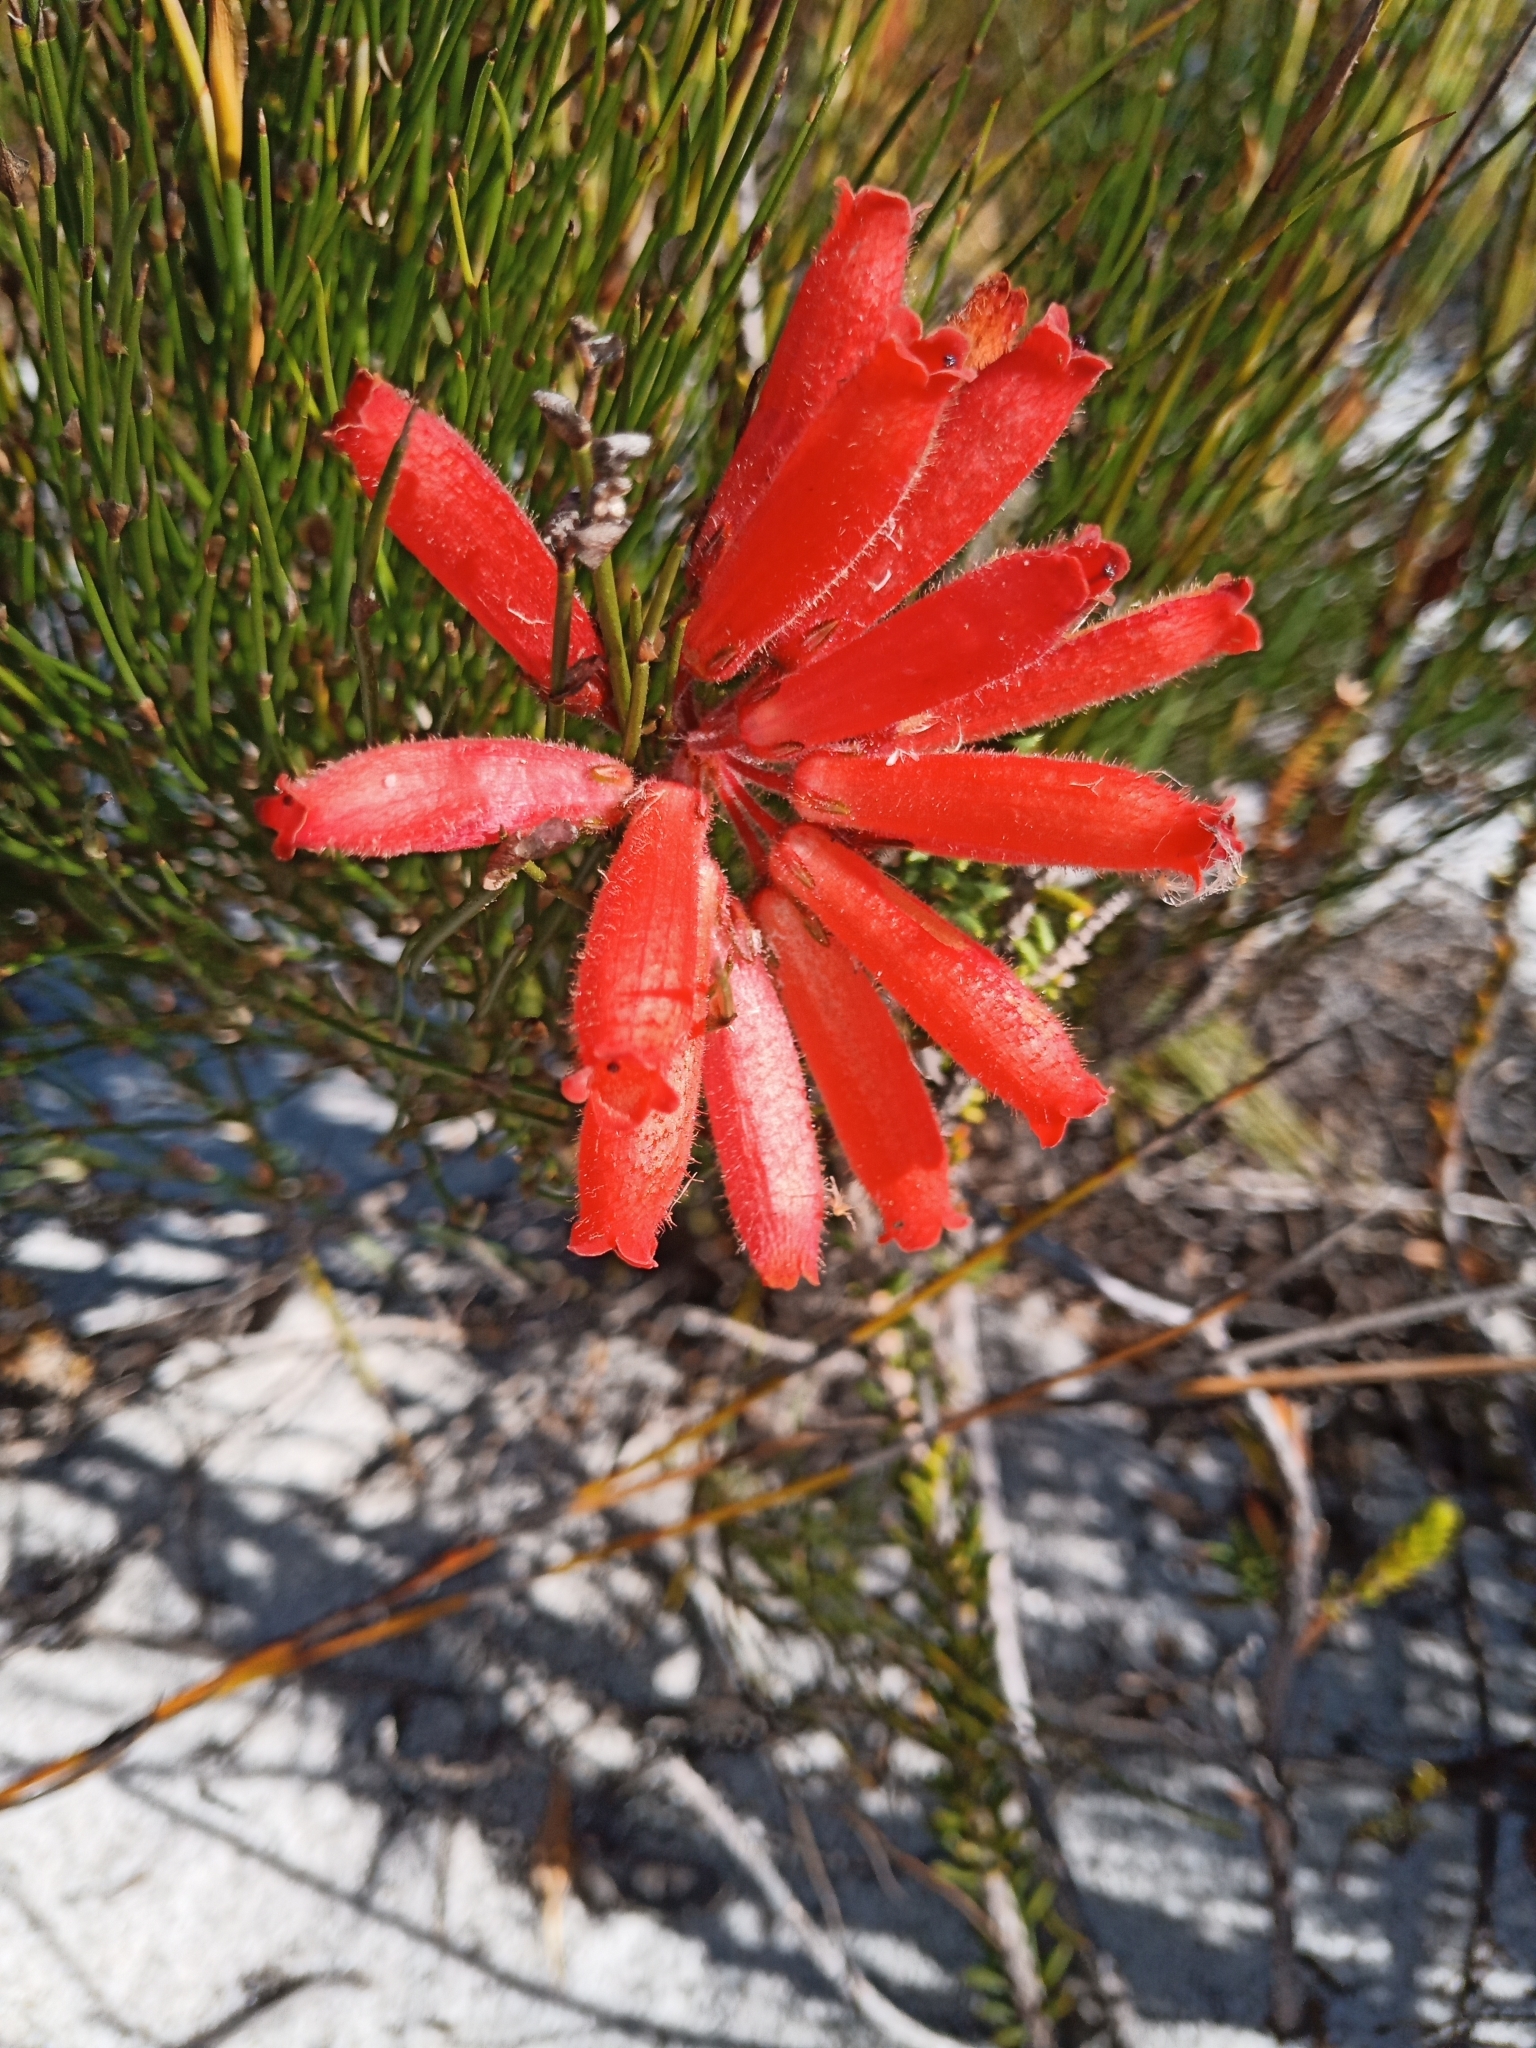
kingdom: Plantae
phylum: Tracheophyta
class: Magnoliopsida
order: Ericales
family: Ericaceae
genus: Erica
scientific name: Erica cerinthoides
